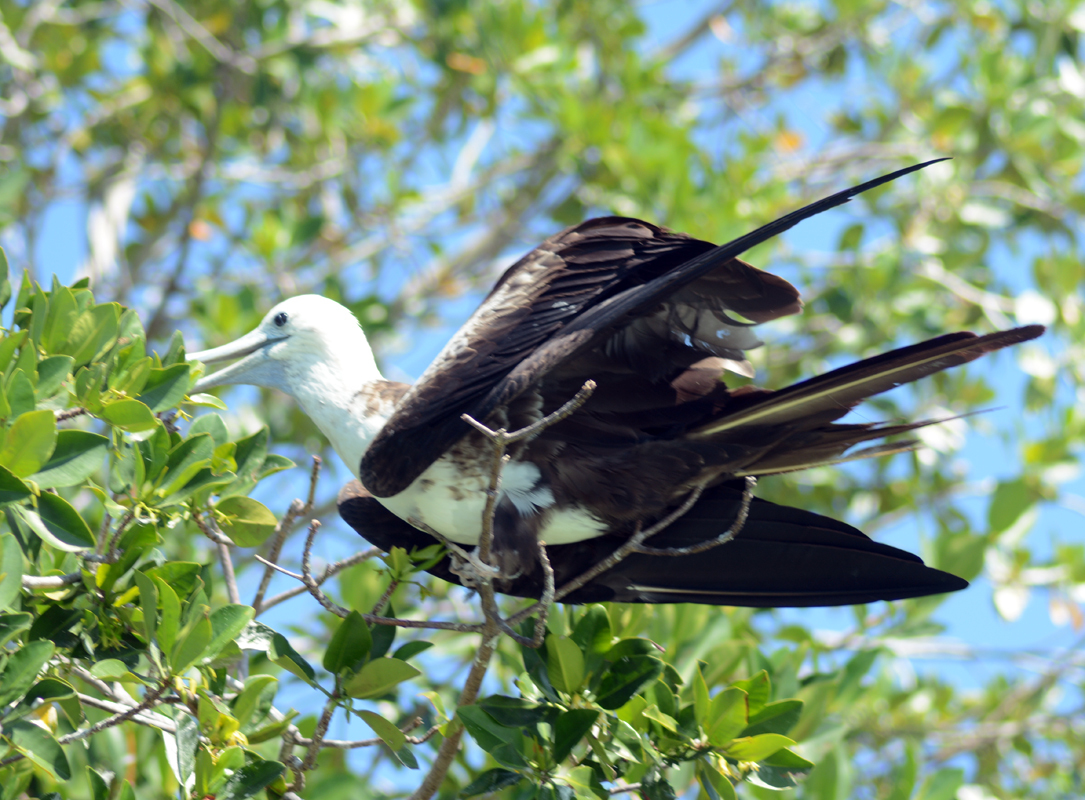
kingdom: Animalia
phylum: Chordata
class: Aves
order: Suliformes
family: Fregatidae
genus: Fregata
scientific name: Fregata magnificens
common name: Magnificent frigatebird
